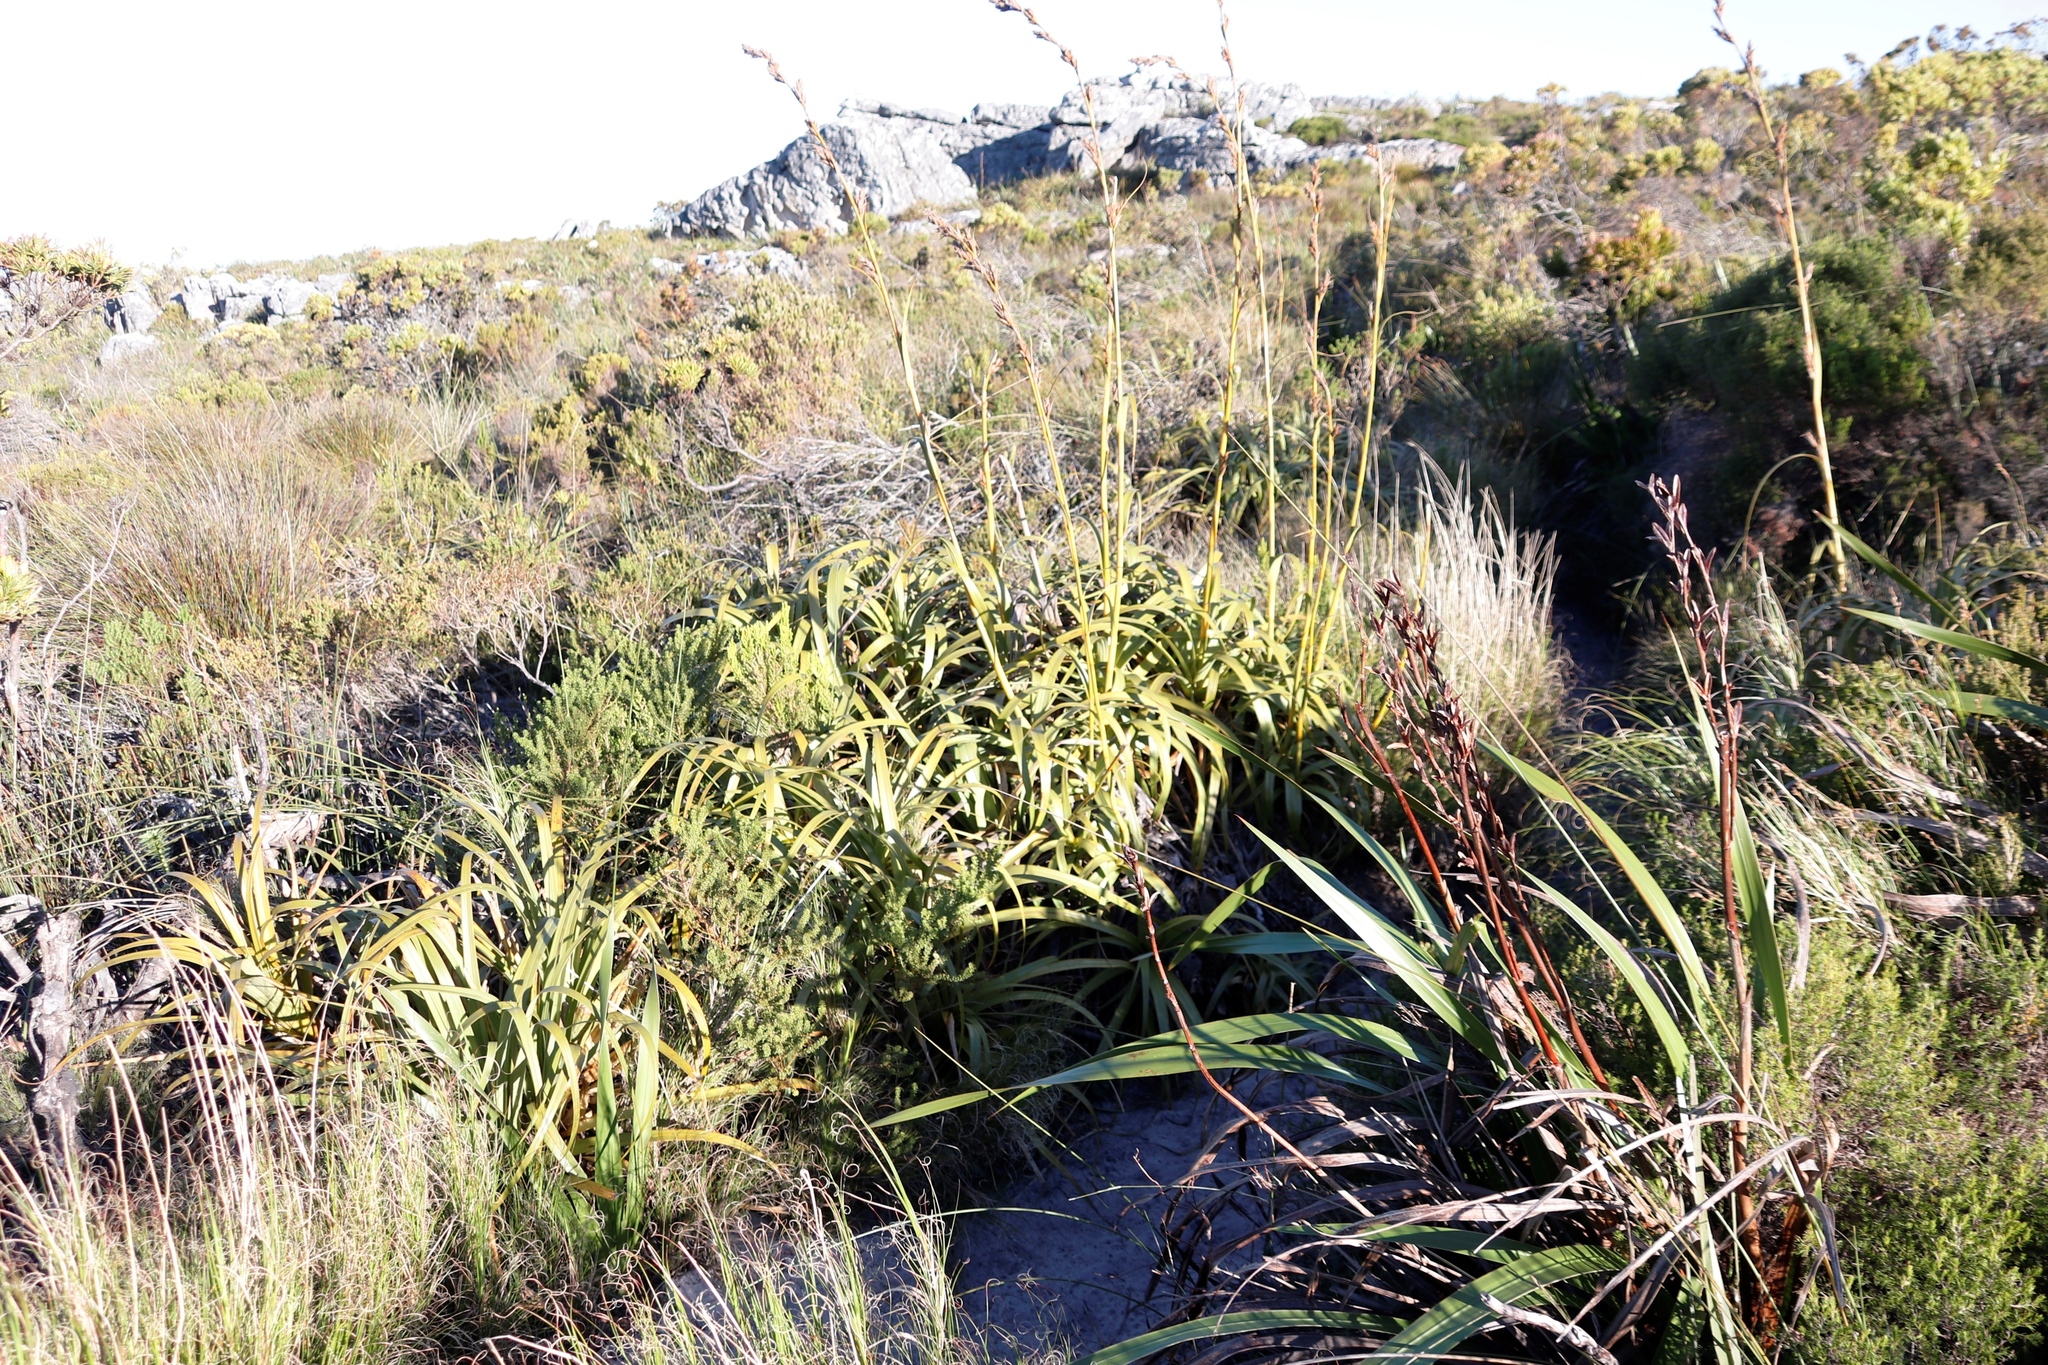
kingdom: Plantae
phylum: Tracheophyta
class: Liliopsida
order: Poales
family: Cyperaceae
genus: Tetraria
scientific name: Tetraria thermalis
